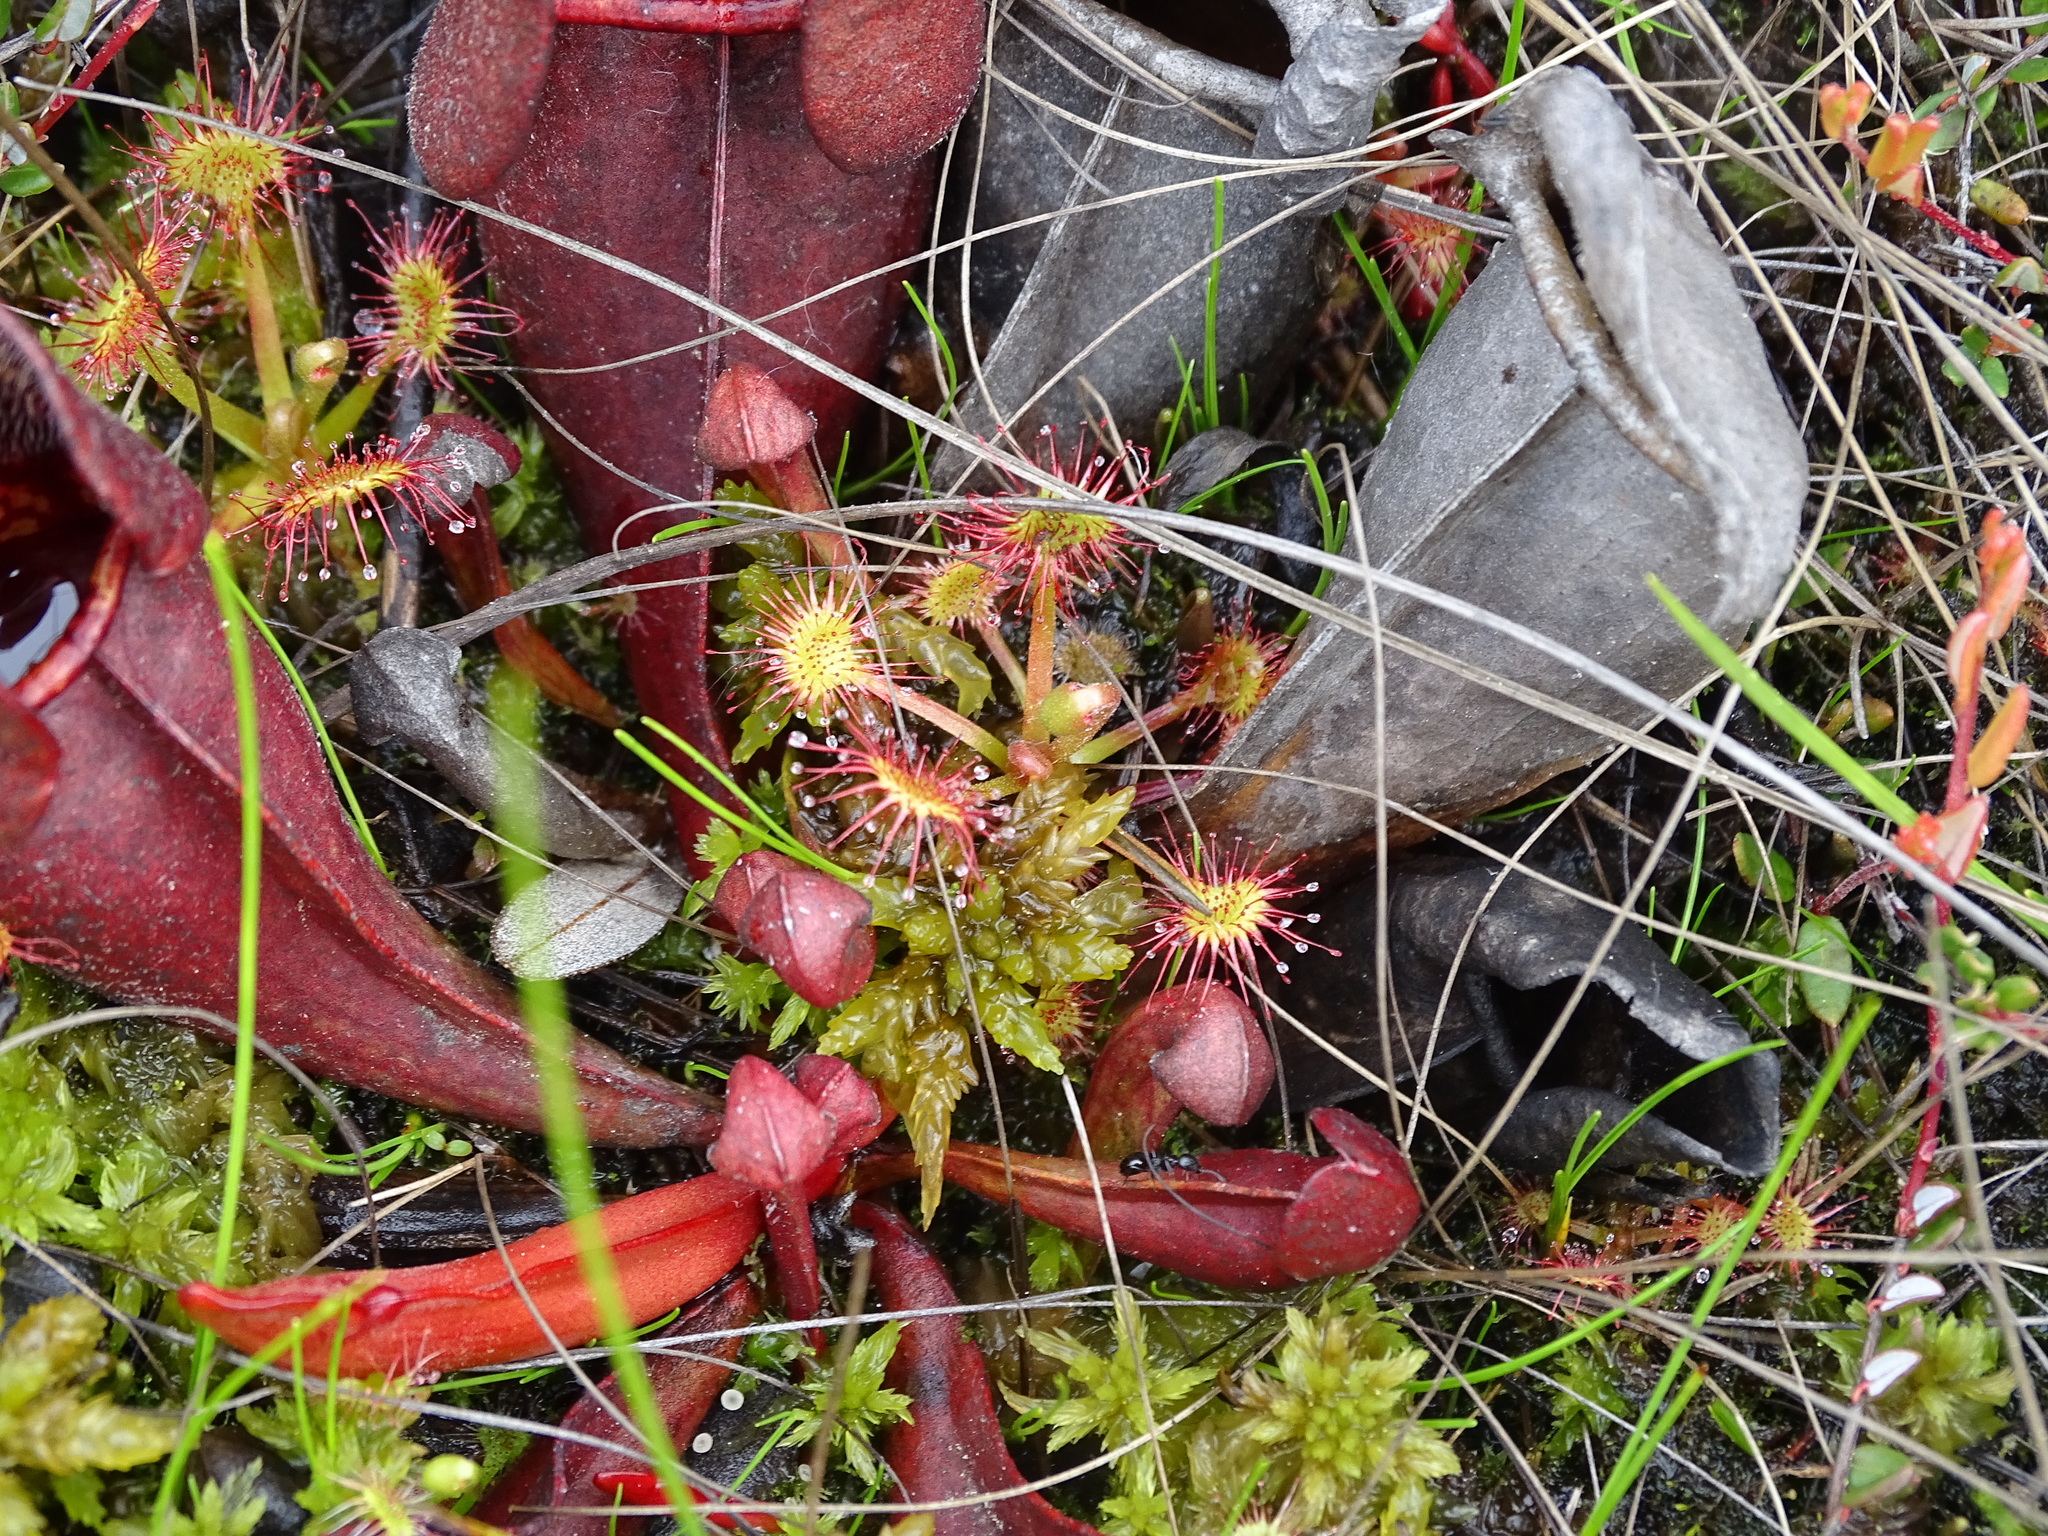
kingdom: Plantae
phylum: Tracheophyta
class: Magnoliopsida
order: Caryophyllales
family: Droseraceae
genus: Drosera
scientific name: Drosera rotundifolia
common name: Round-leaved sundew
